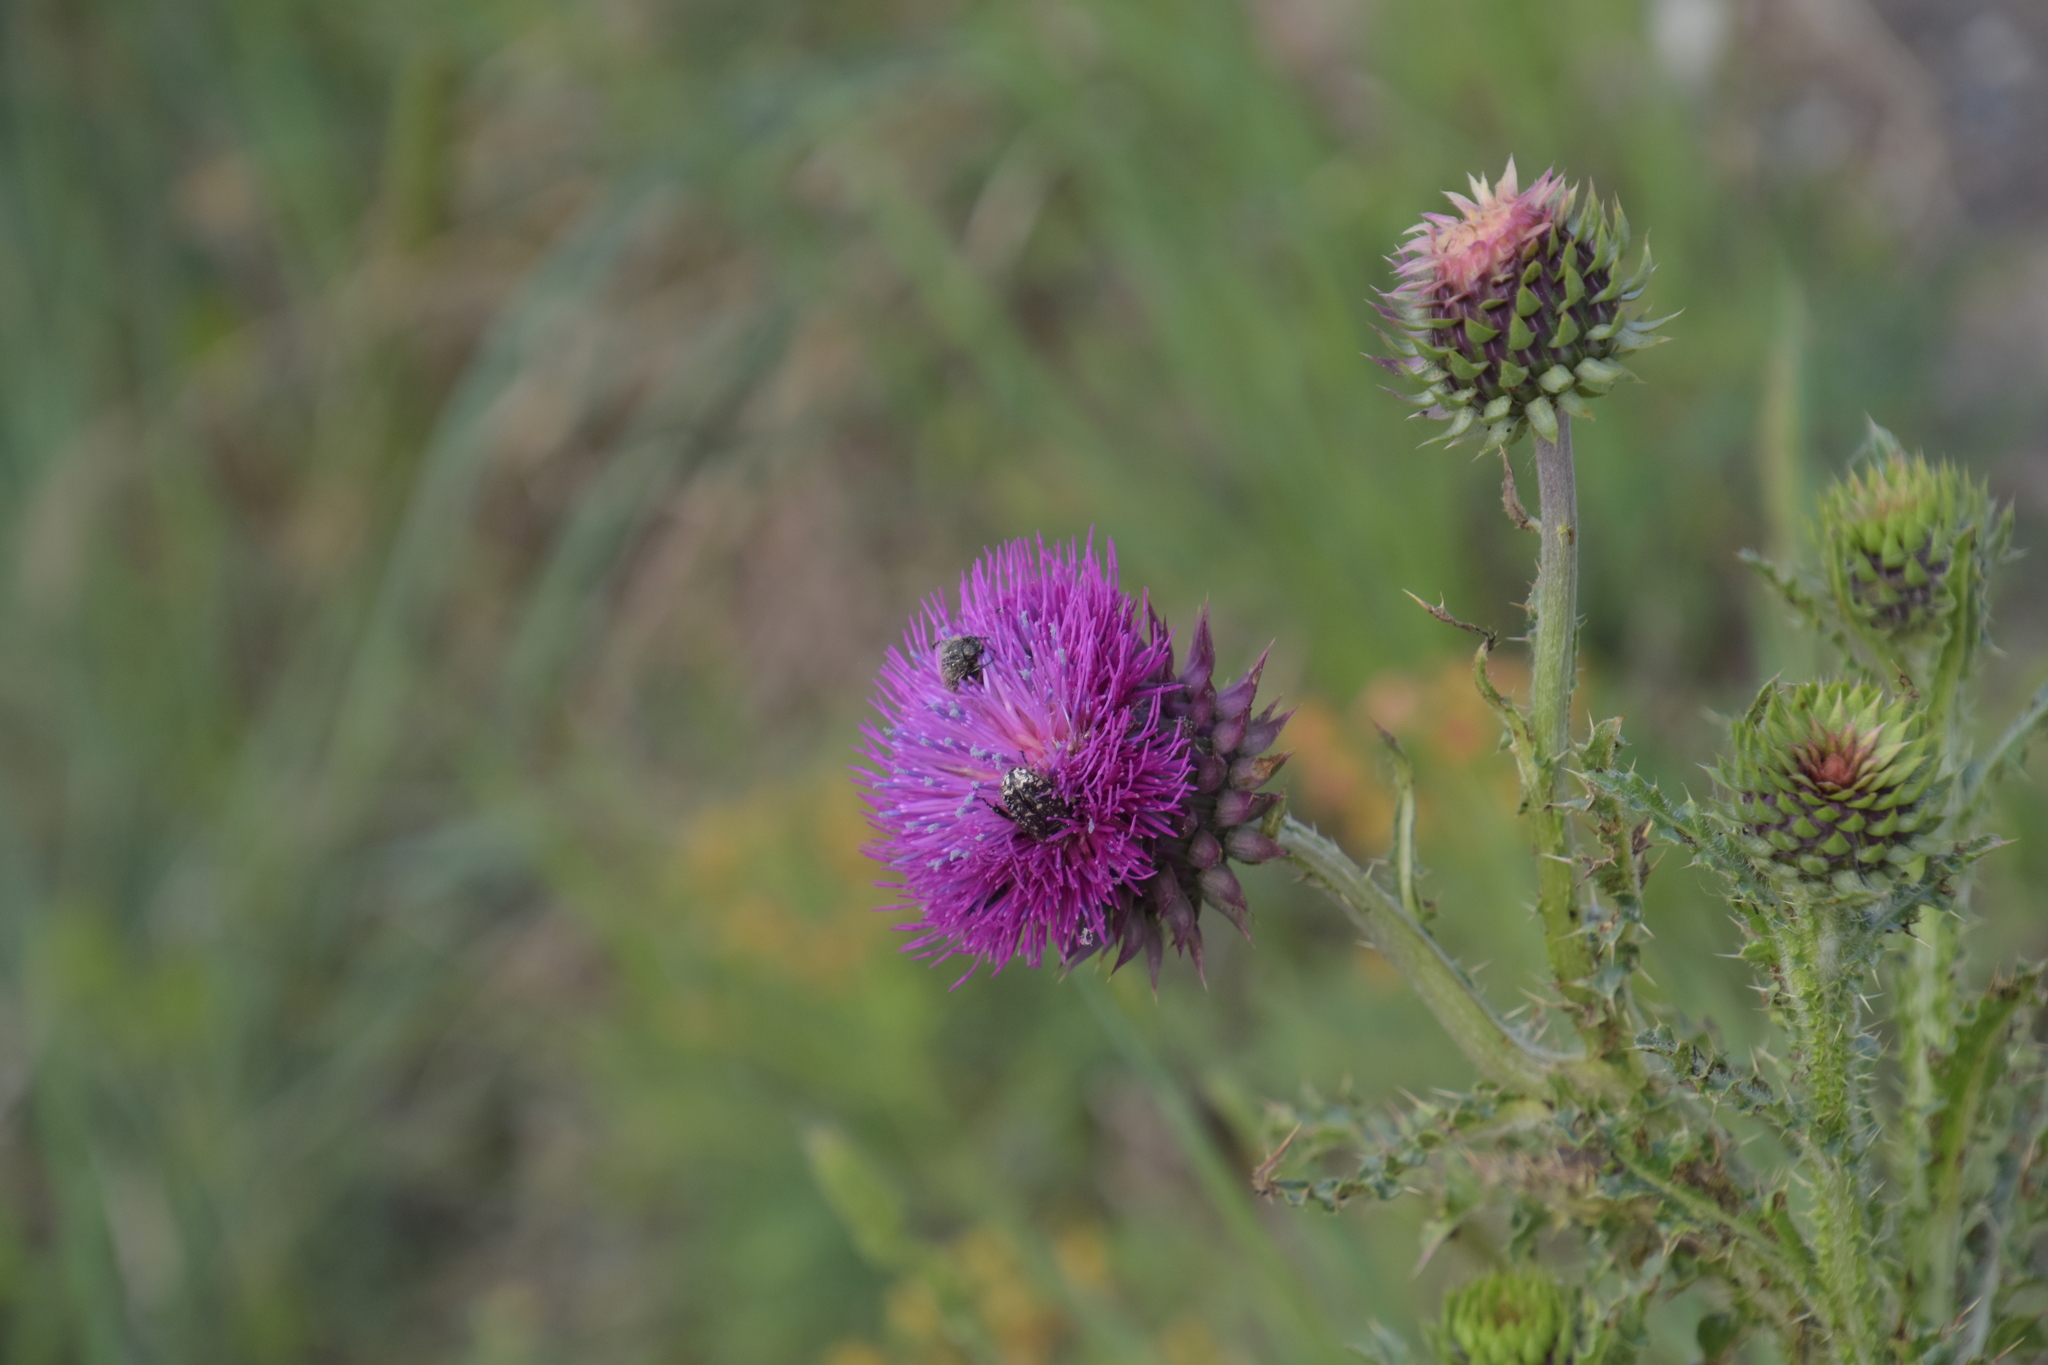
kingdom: Animalia
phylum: Arthropoda
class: Insecta
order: Coleoptera
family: Scarabaeidae
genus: Oxythyrea
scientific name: Oxythyrea funesta
